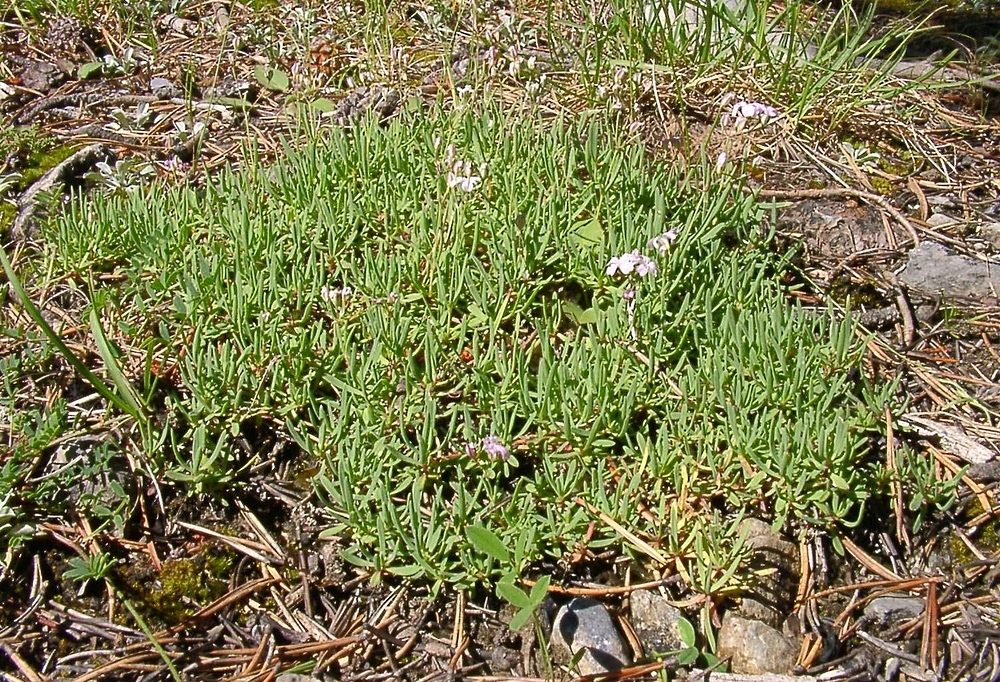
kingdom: Plantae
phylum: Tracheophyta
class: Magnoliopsida
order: Caryophyllales
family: Caryophyllaceae
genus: Gypsophila
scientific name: Gypsophila repens
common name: Creeping baby's-breath
